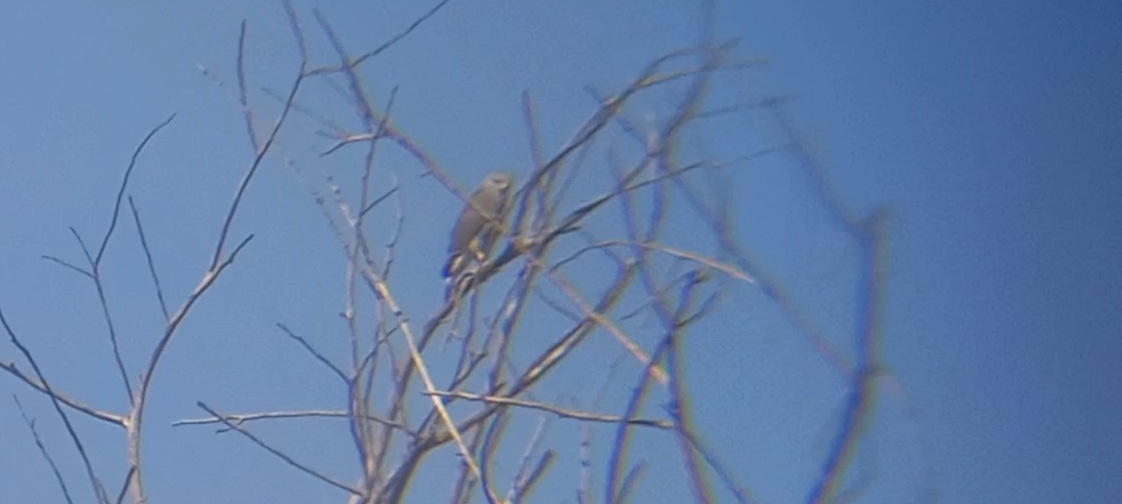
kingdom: Animalia
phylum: Chordata
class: Aves
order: Accipitriformes
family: Accipitridae
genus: Buteo
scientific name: Buteo nitidus
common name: Grey-lined hawk
